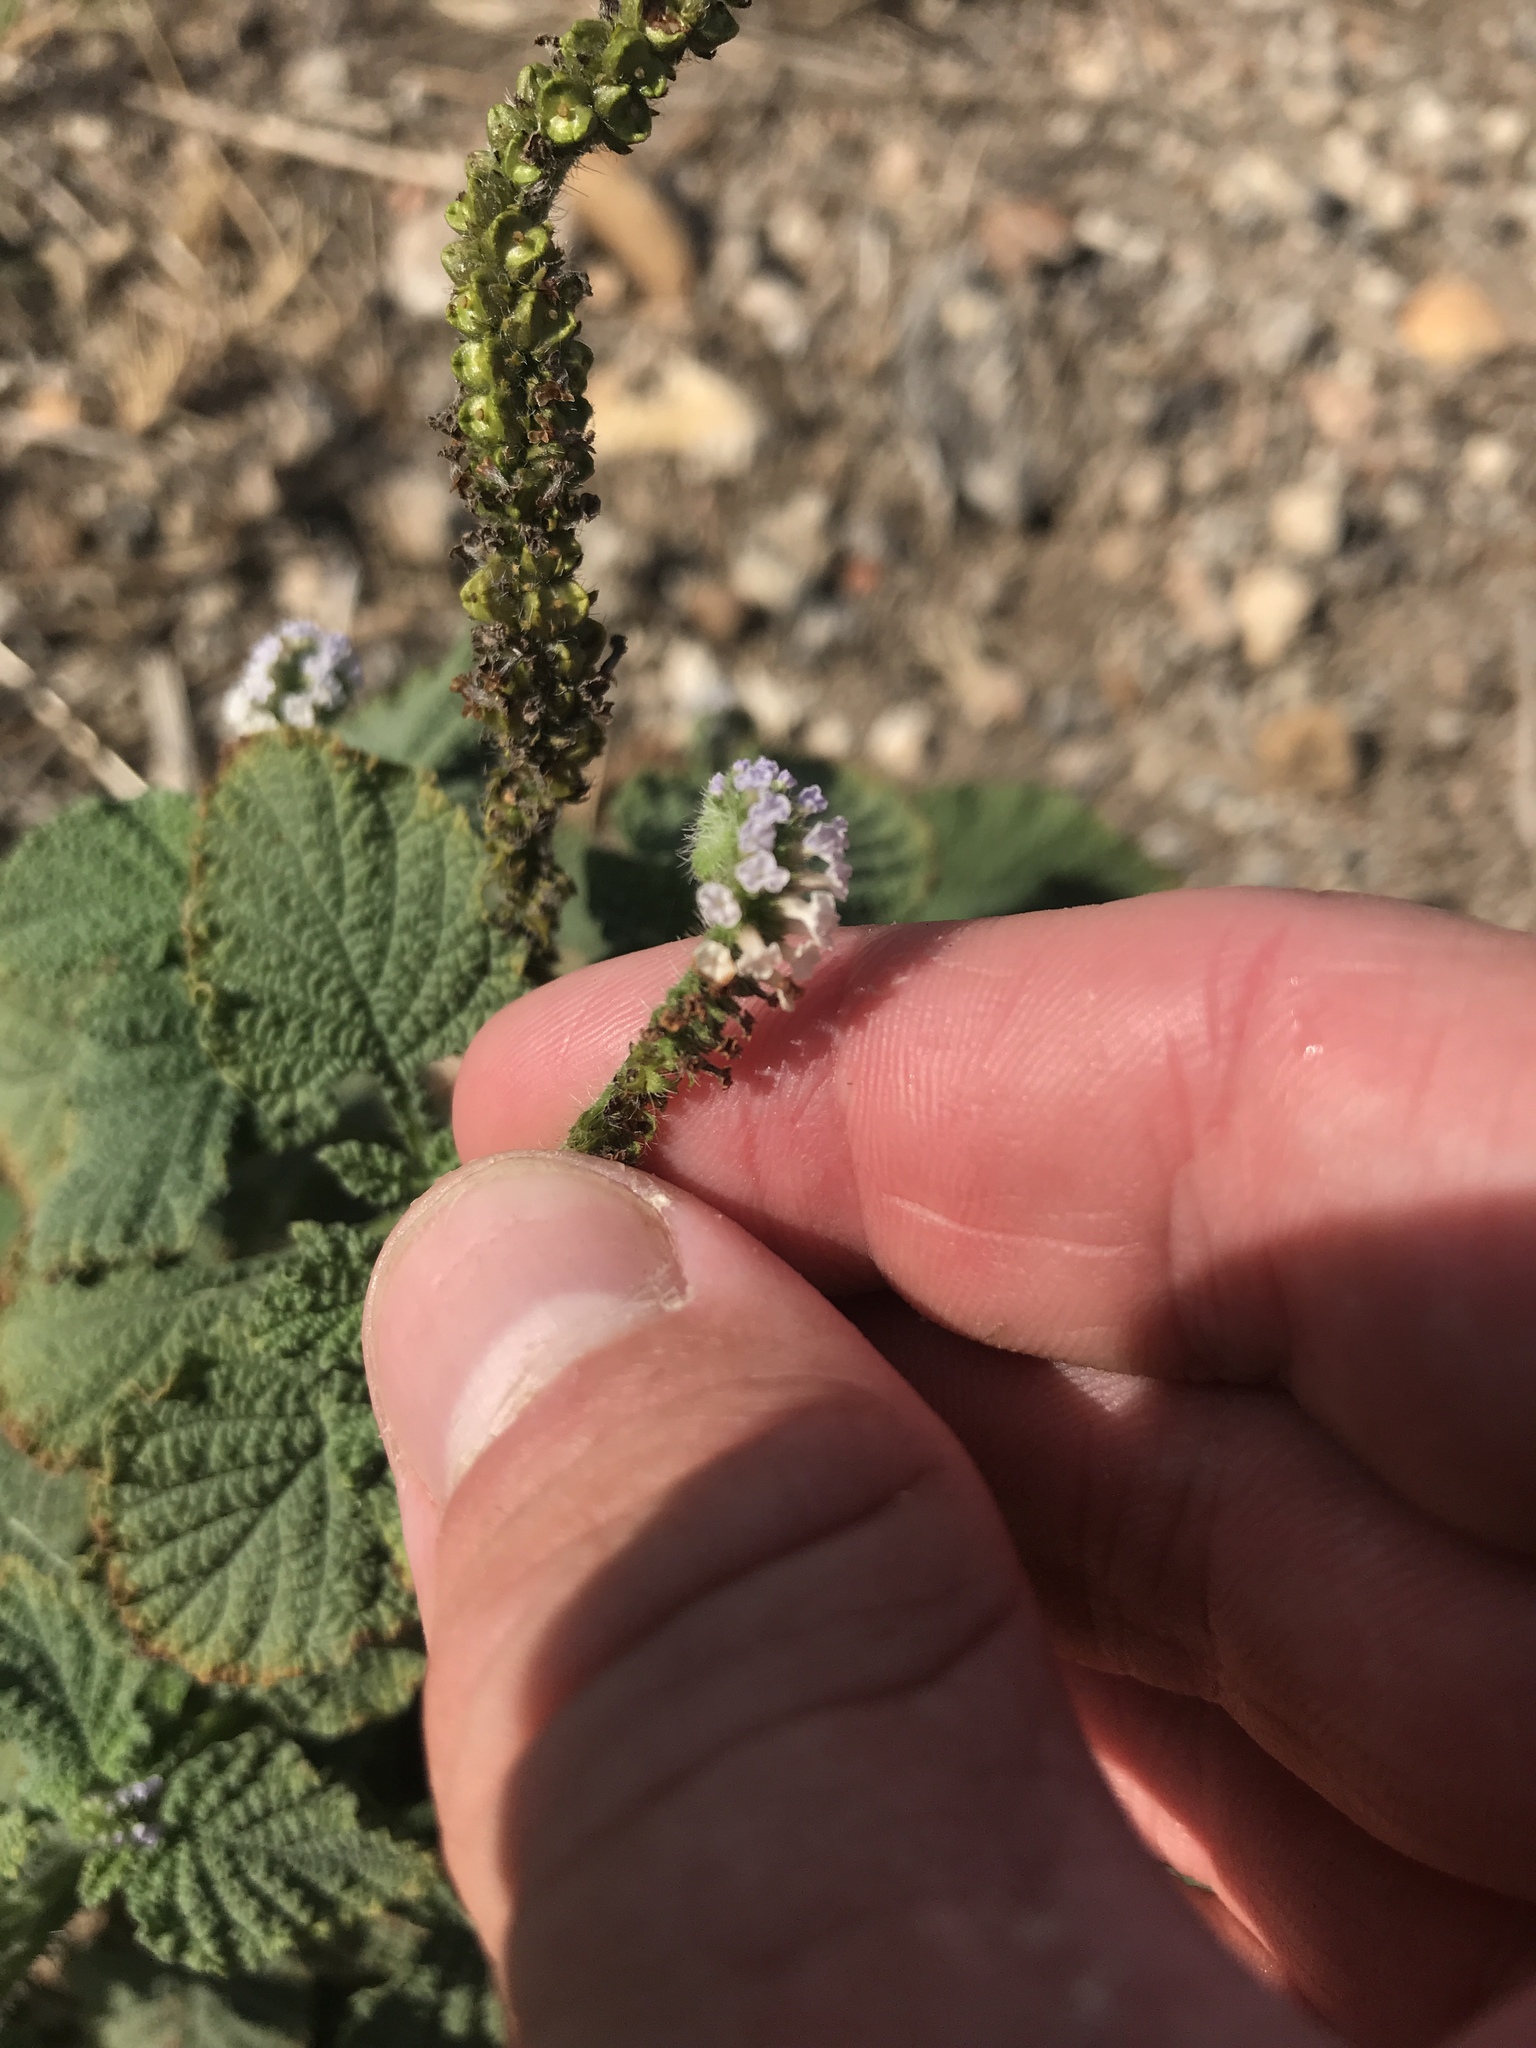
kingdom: Plantae
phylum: Tracheophyta
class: Magnoliopsida
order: Boraginales
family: Heliotropiaceae
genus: Heliotropium
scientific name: Heliotropium indicum
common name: Indian heliotrope
